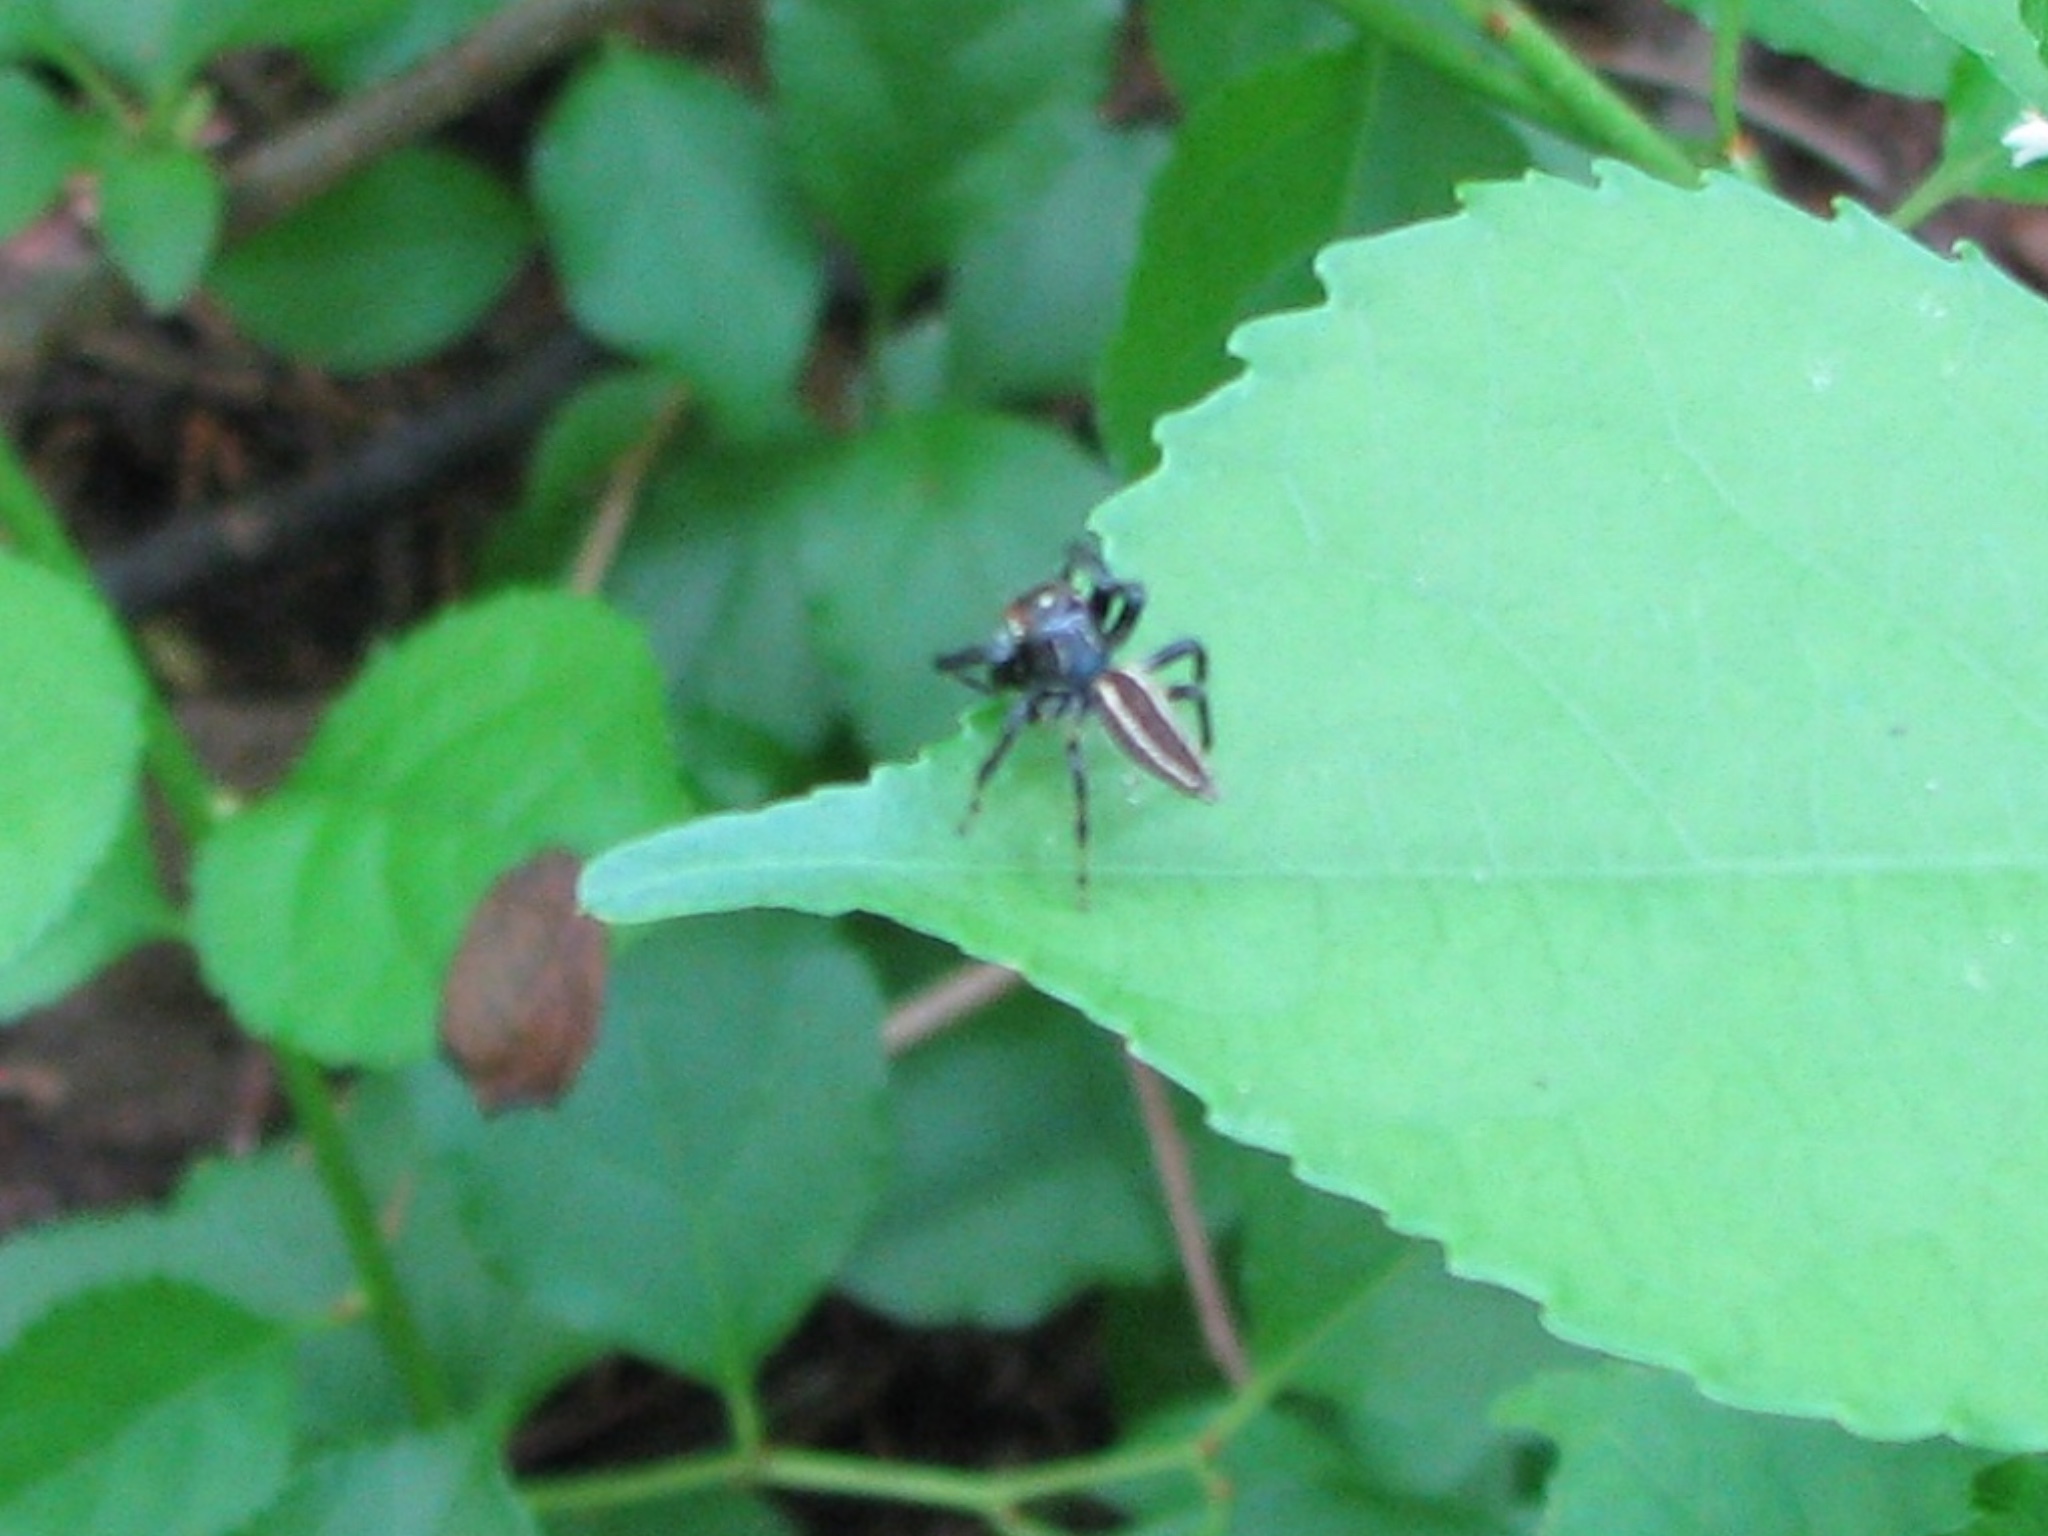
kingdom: Animalia
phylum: Arthropoda
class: Arachnida
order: Araneae
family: Salticidae
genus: Colonus
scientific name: Colonus sylvanus
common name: Jumping spiders
